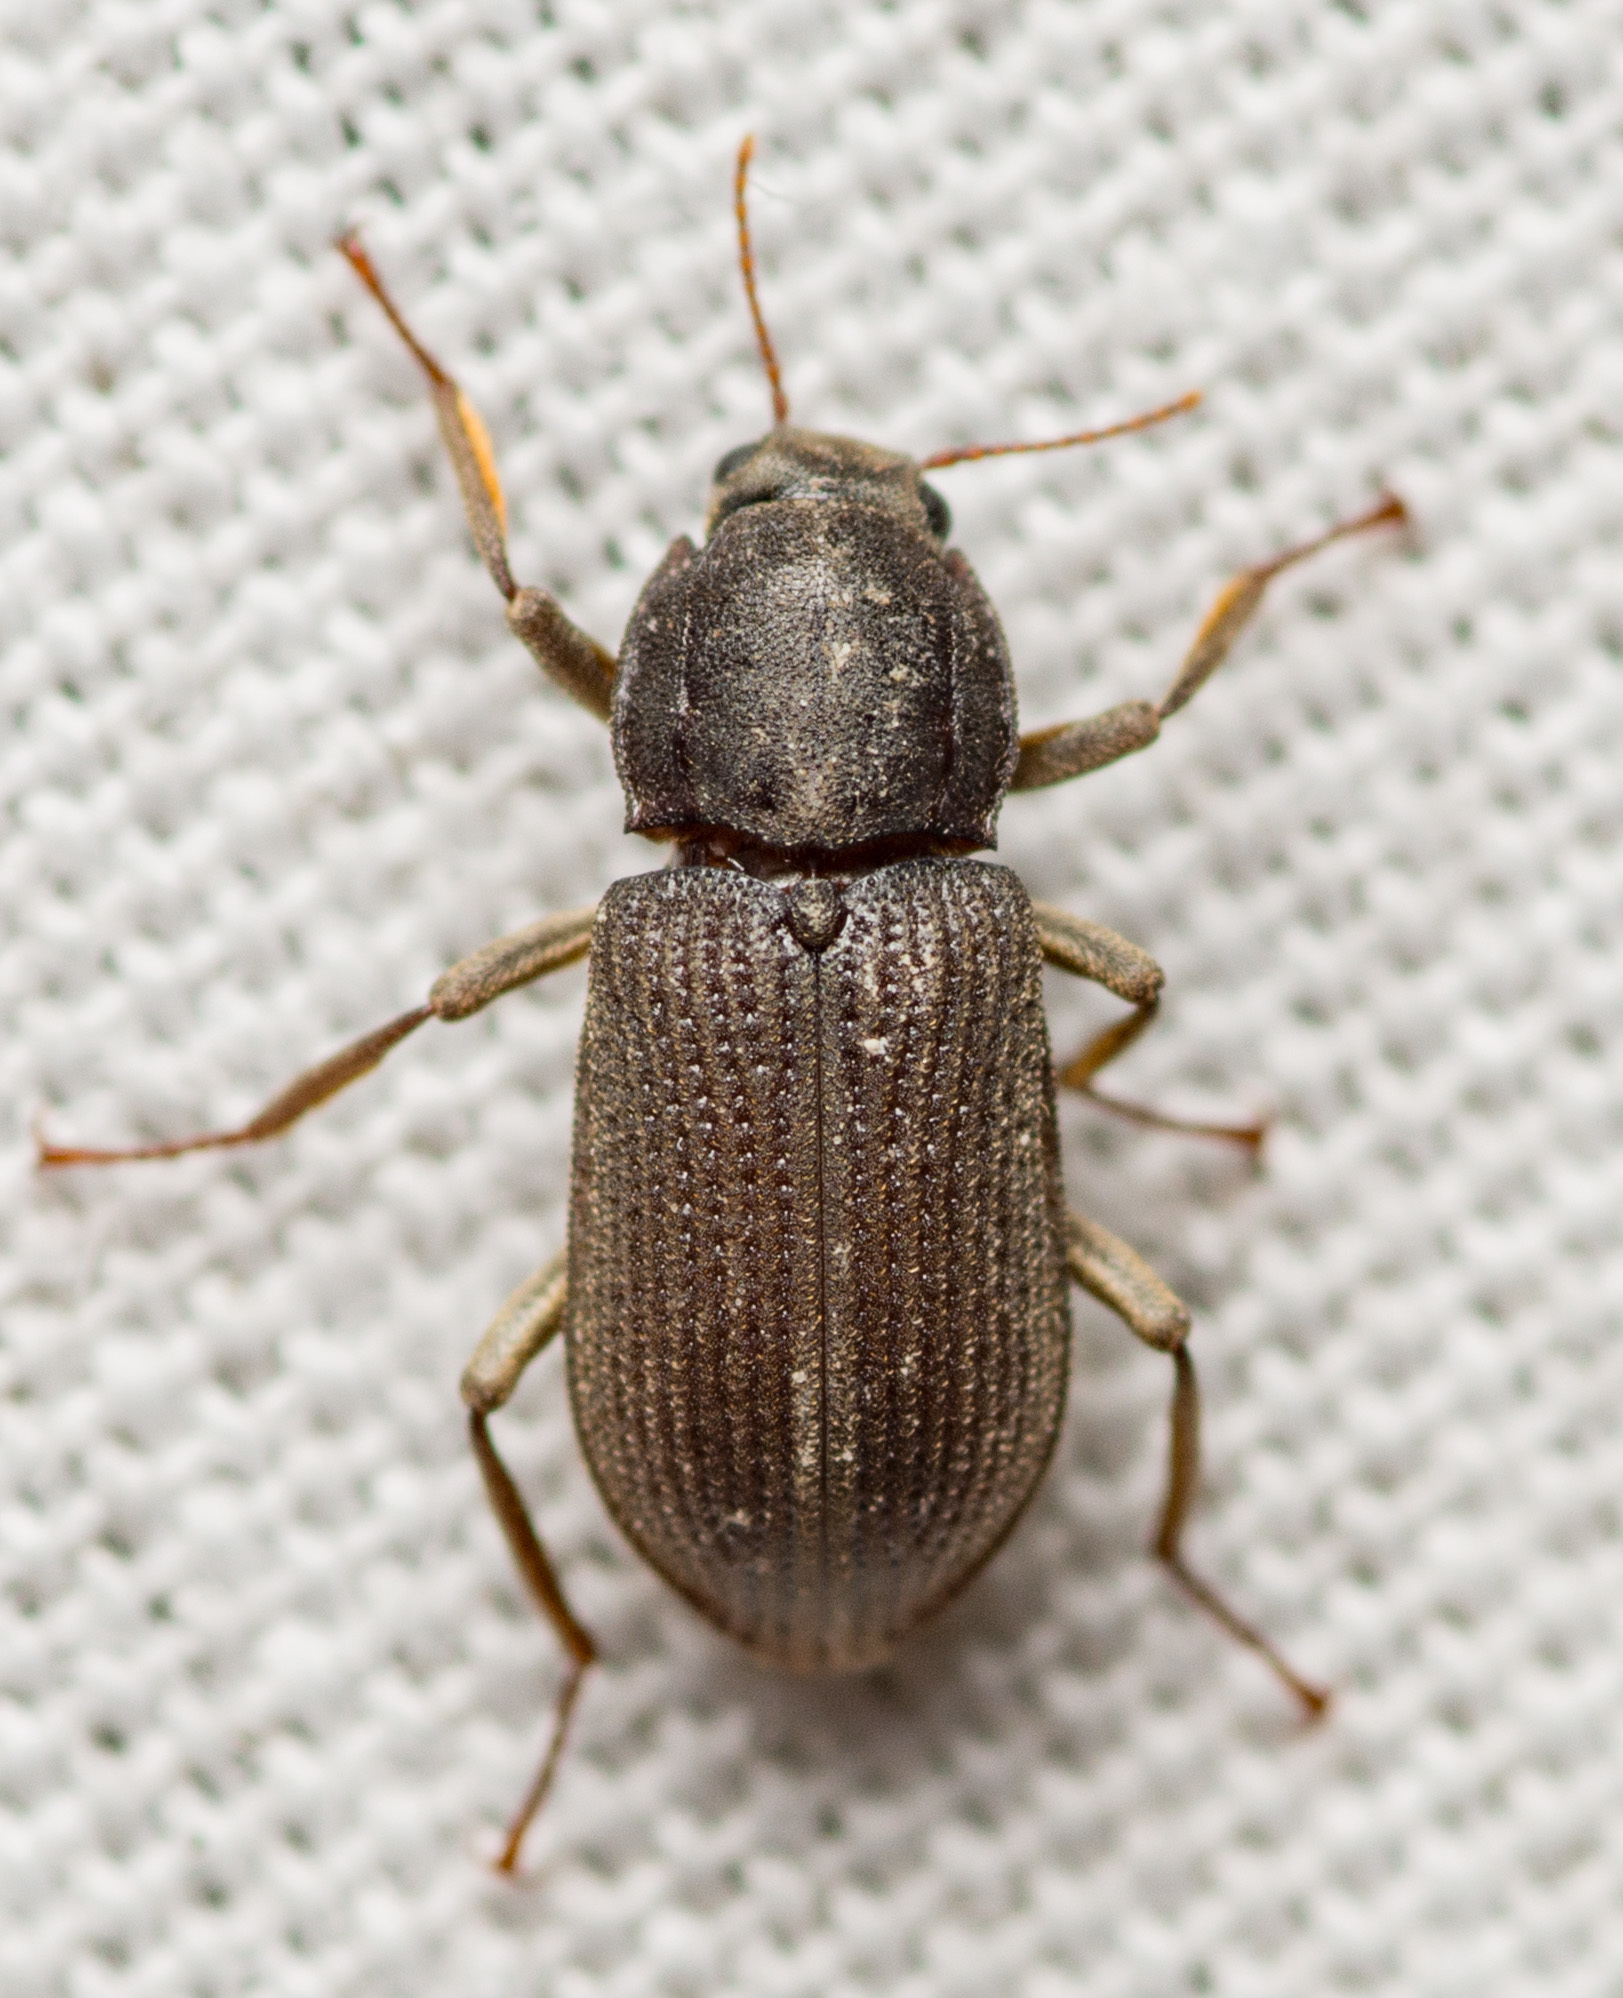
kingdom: Animalia
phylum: Arthropoda
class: Insecta
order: Coleoptera
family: Elmidae
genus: Macrelmis
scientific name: Macrelmis texana
